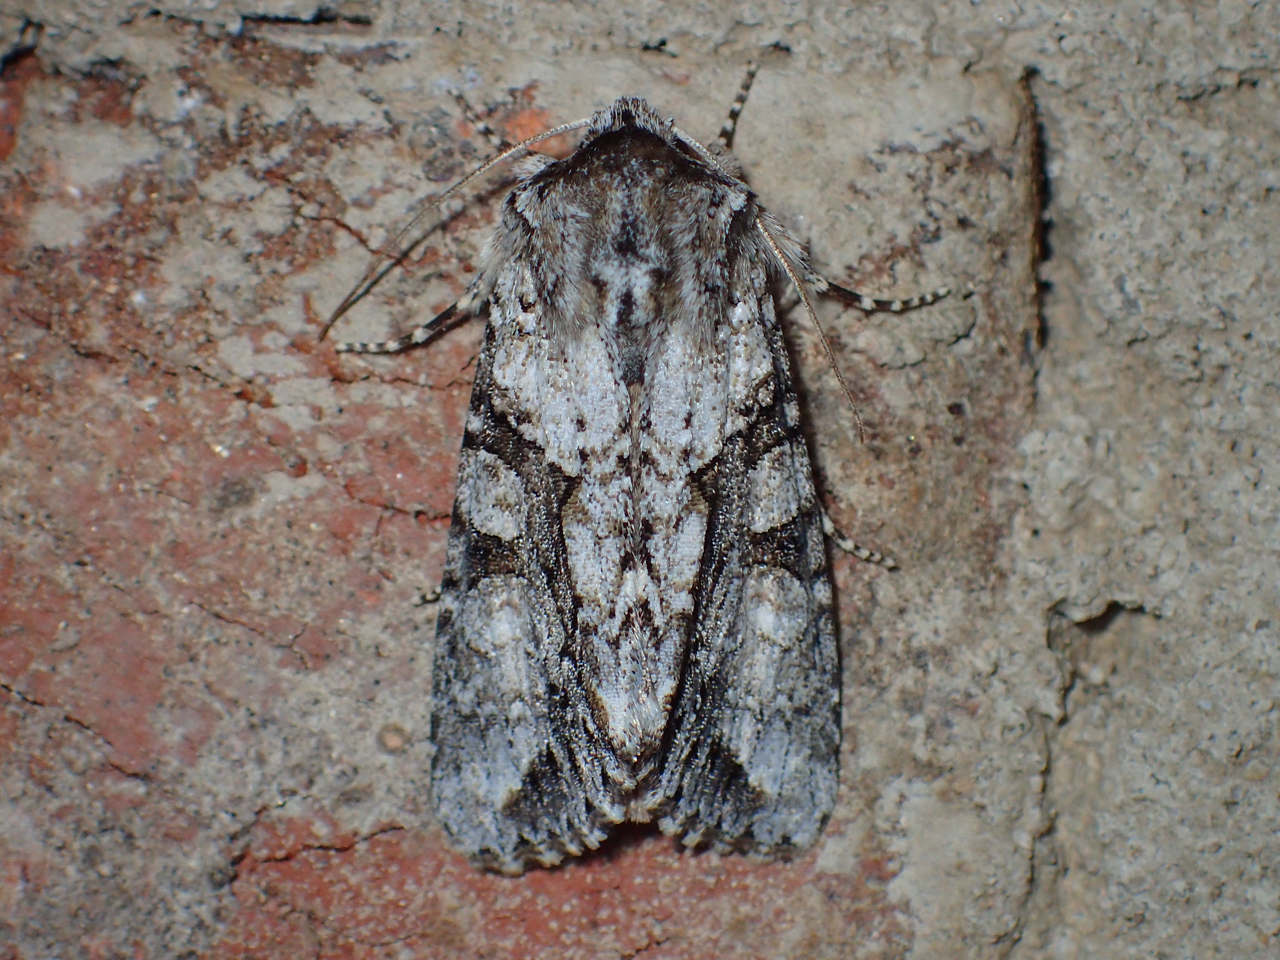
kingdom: Animalia
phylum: Arthropoda
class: Insecta
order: Lepidoptera
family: Noctuidae
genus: Achatia
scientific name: Achatia distincta
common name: Distinct quaker
